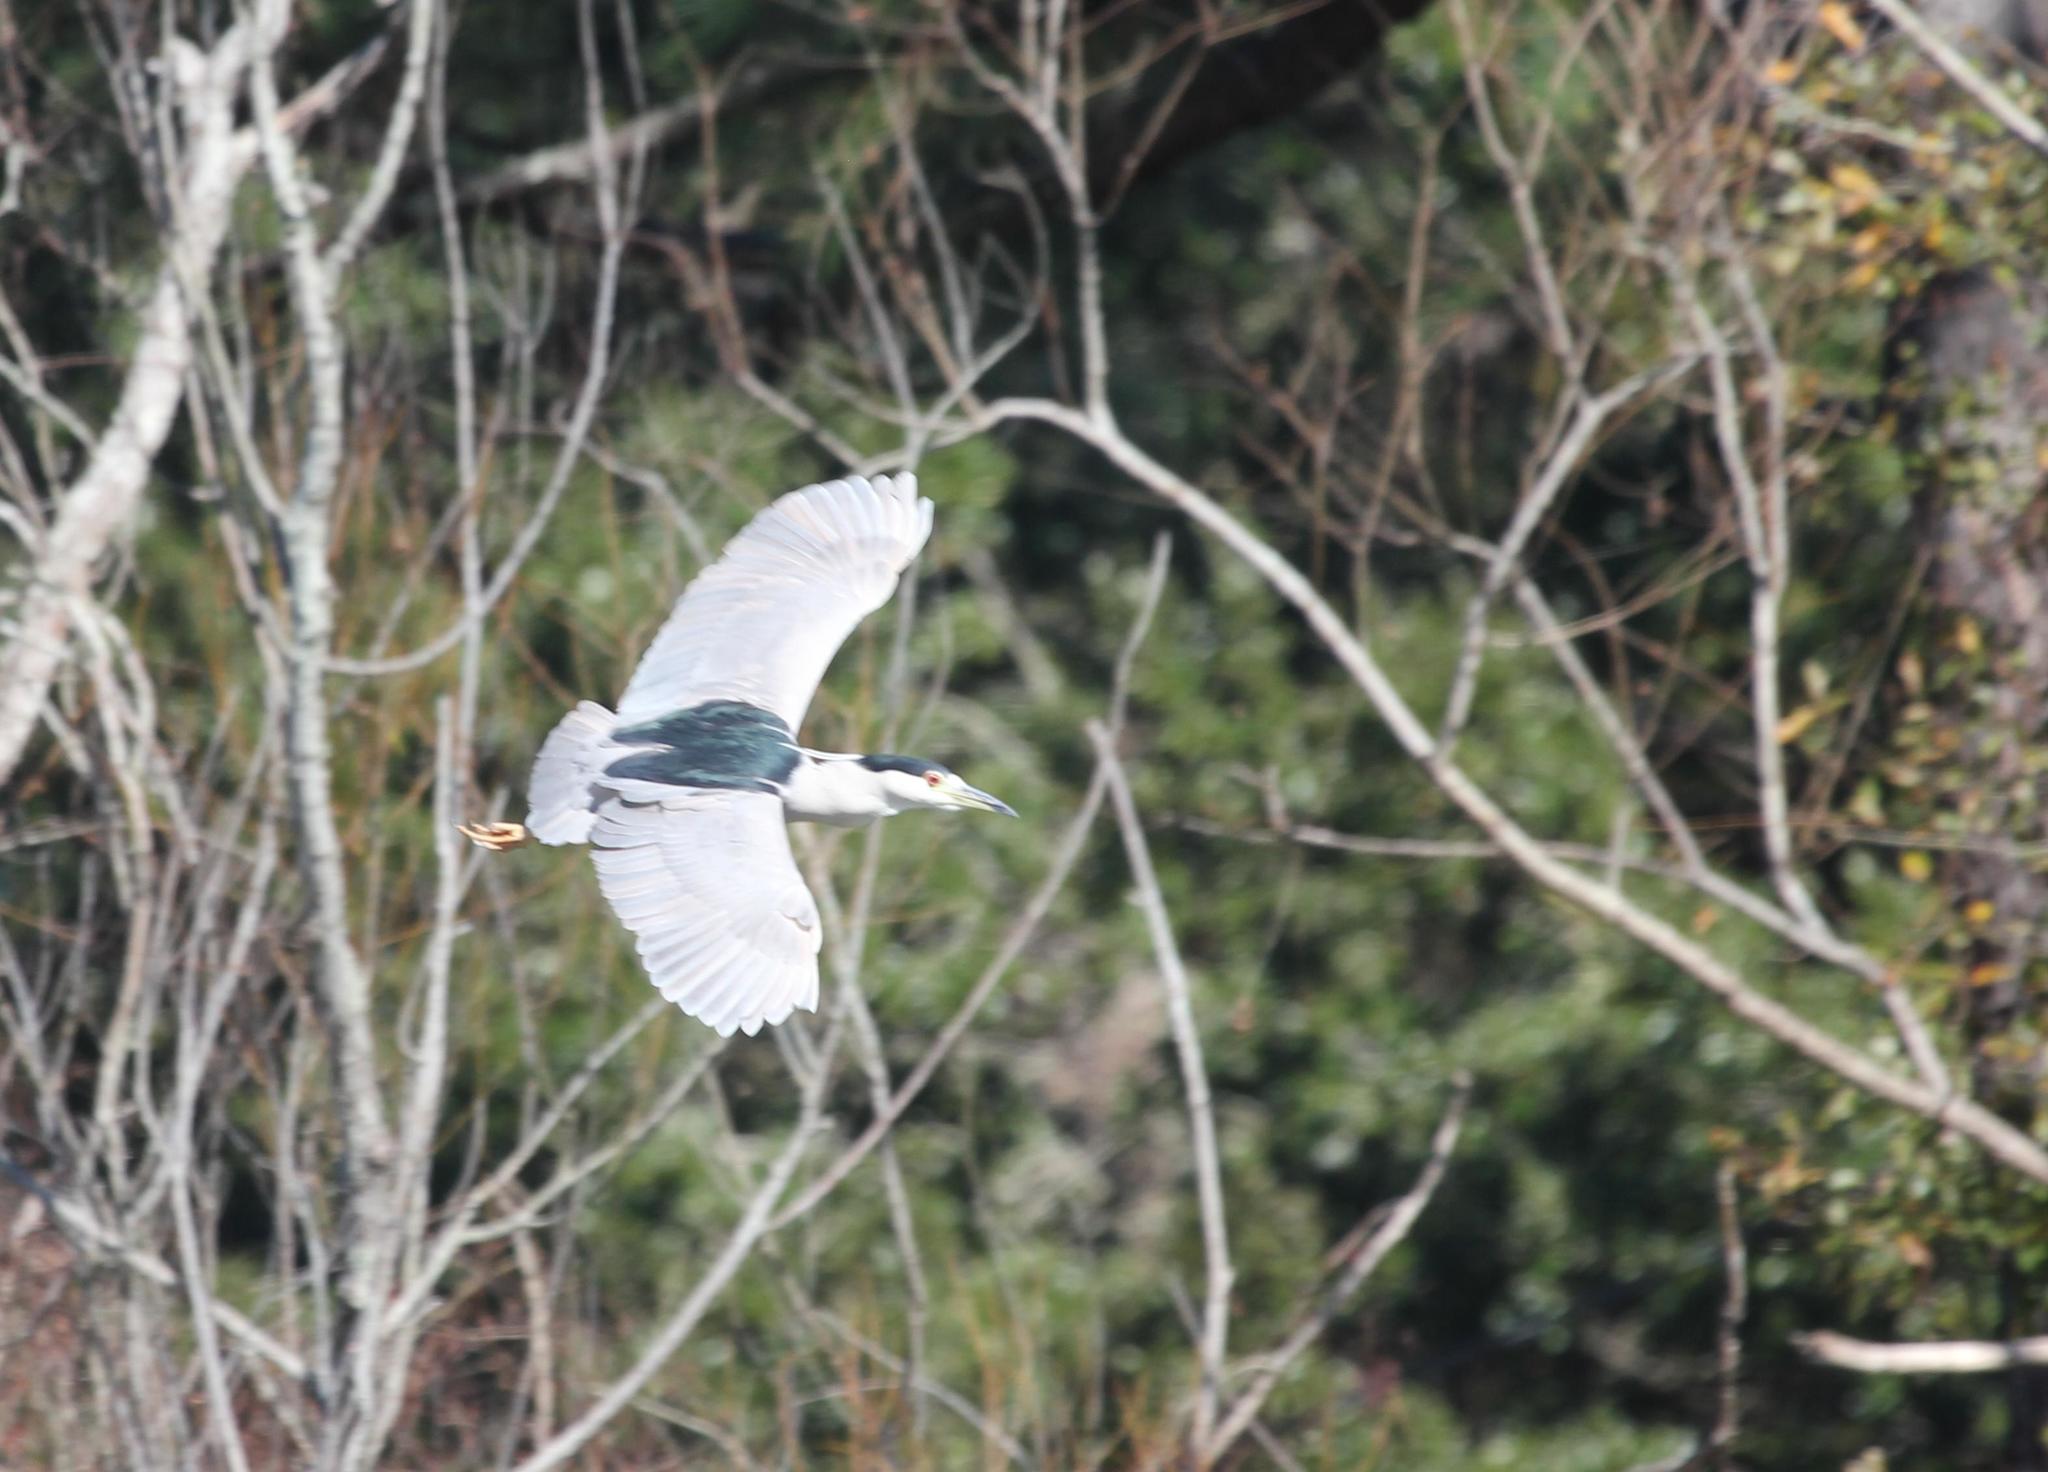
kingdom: Animalia
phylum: Chordata
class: Aves
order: Pelecaniformes
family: Ardeidae
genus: Nycticorax
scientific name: Nycticorax nycticorax
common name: Black-crowned night heron
